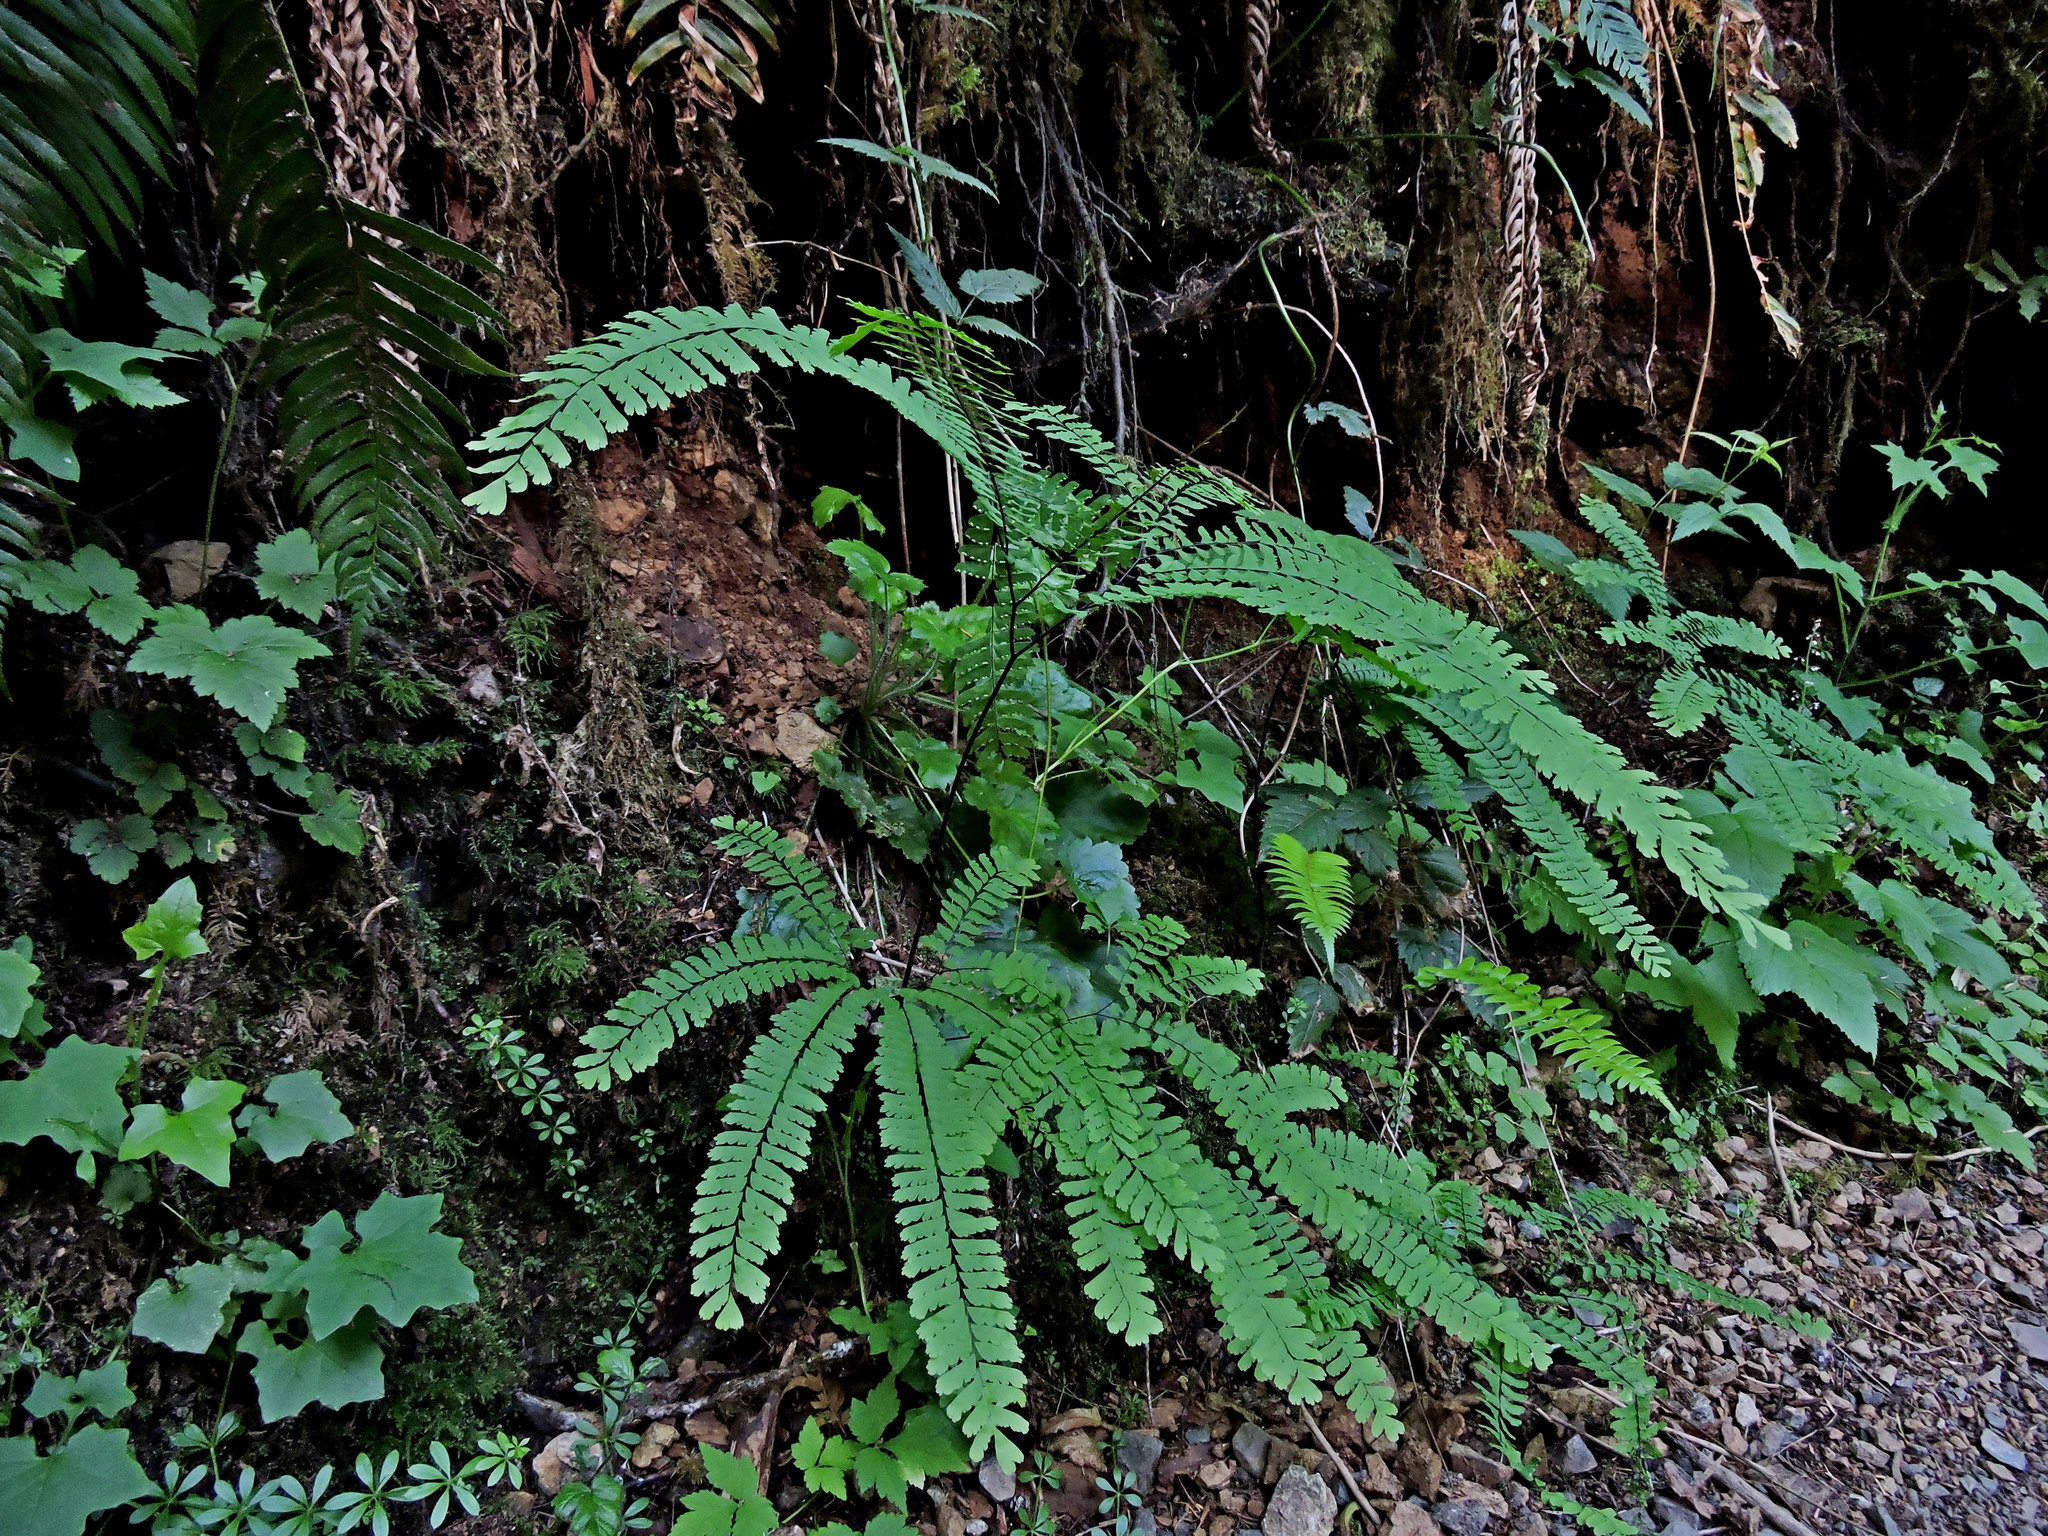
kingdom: Plantae
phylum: Tracheophyta
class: Polypodiopsida
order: Polypodiales
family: Pteridaceae
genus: Adiantum
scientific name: Adiantum aleuticum
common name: Aleutian maidenhair fern
